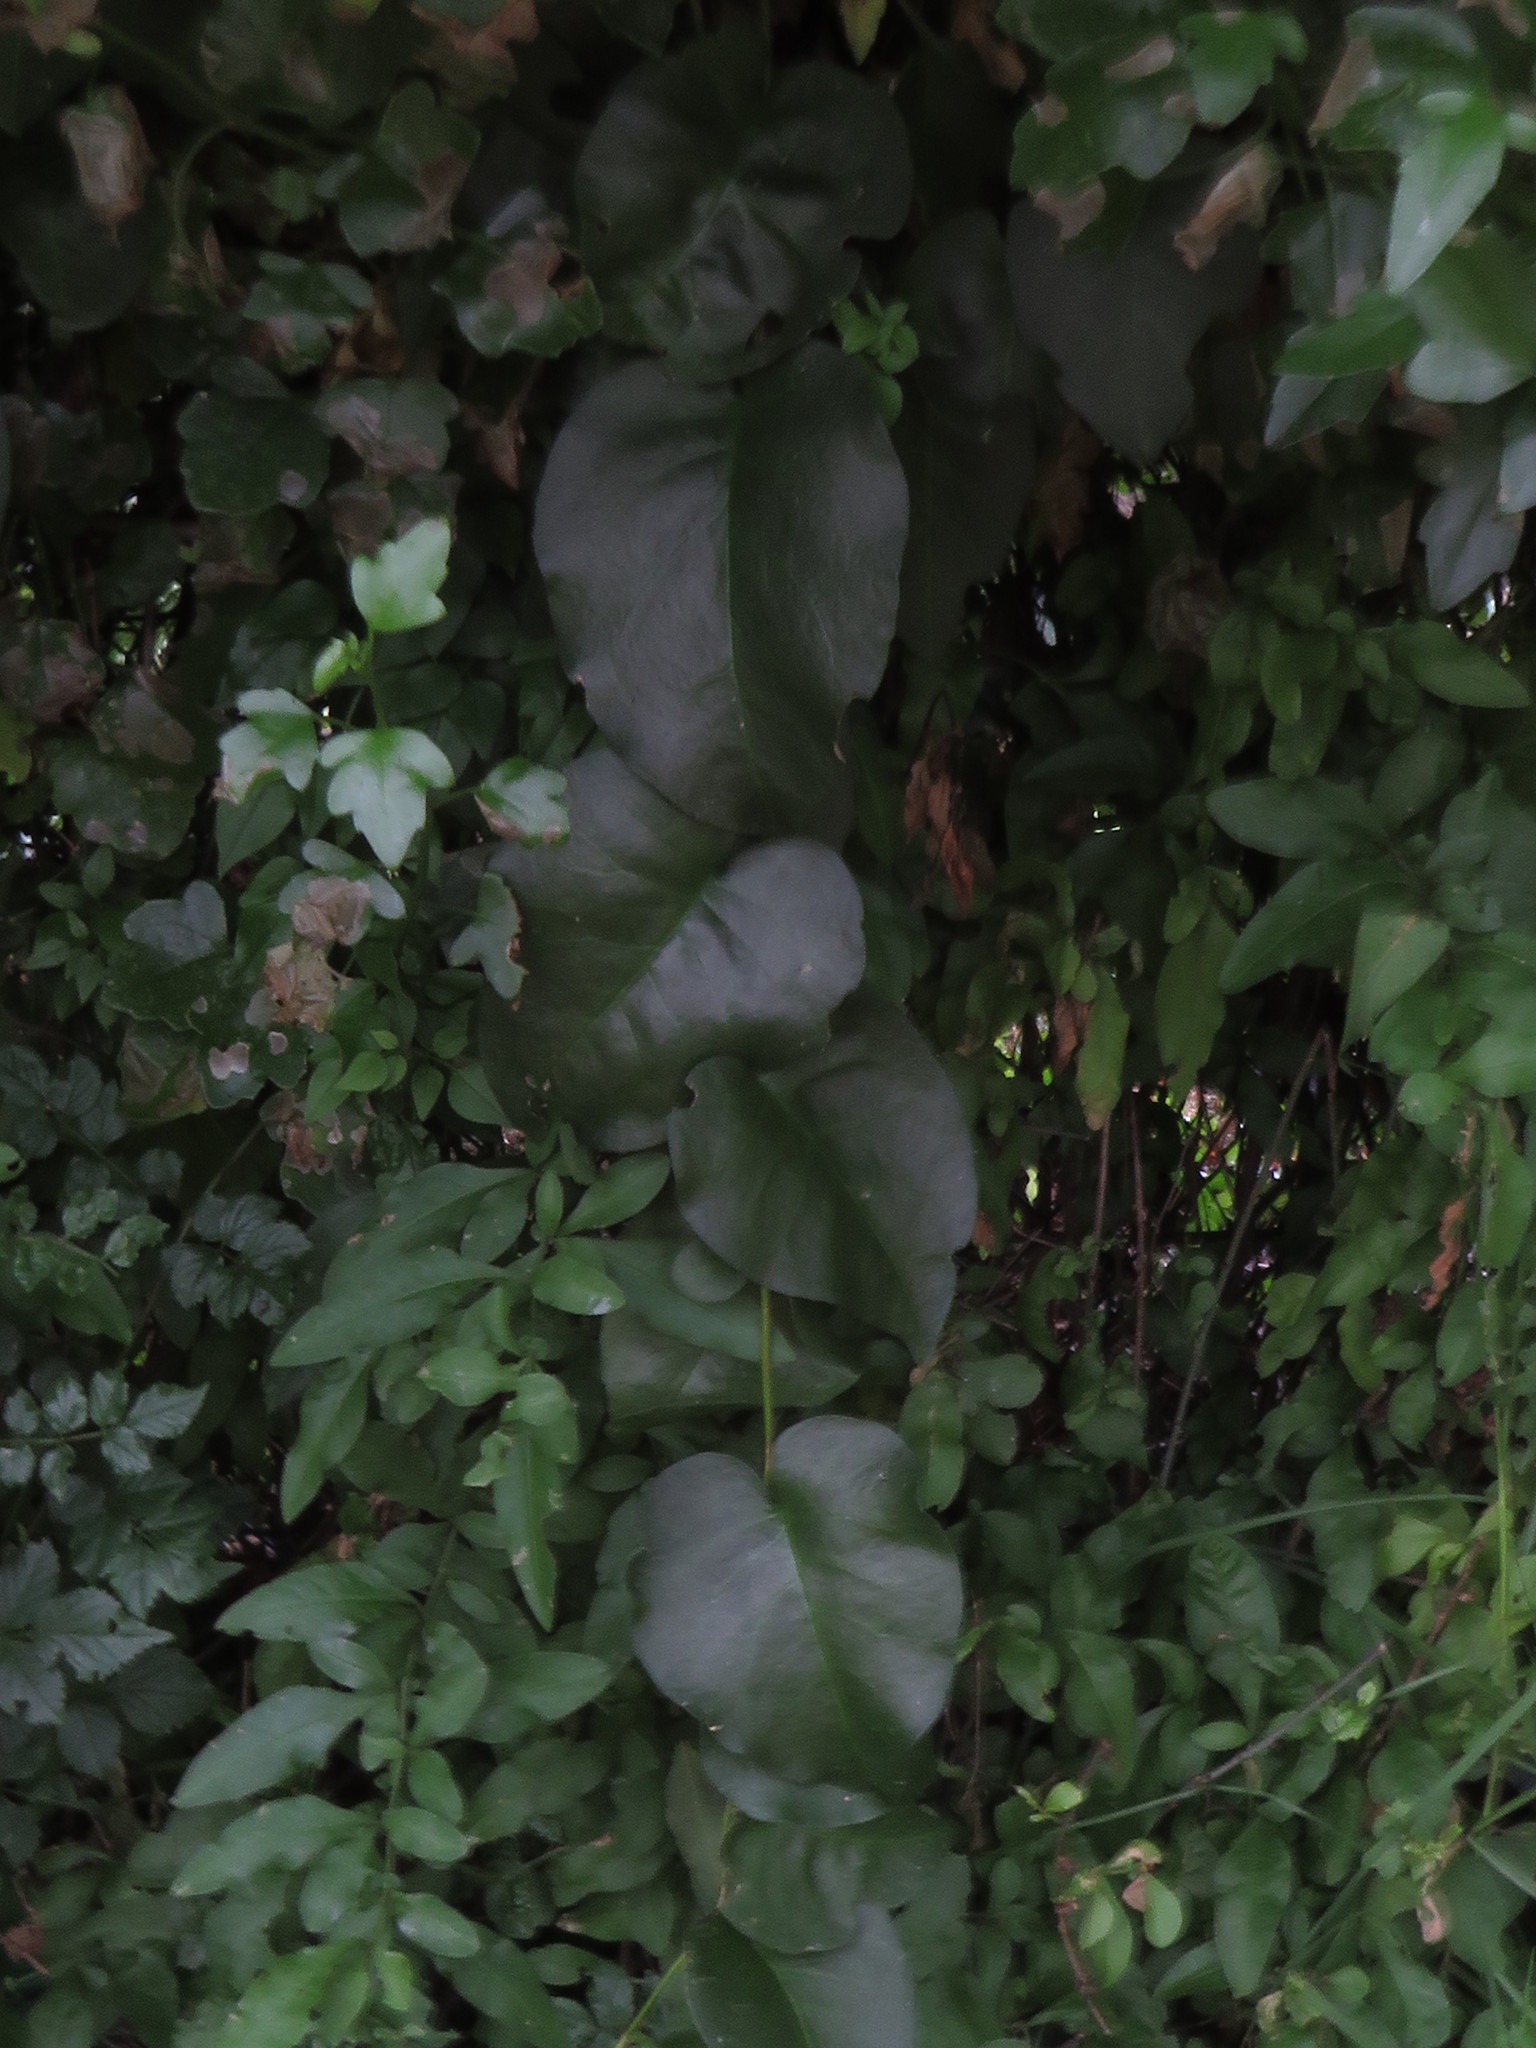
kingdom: Plantae
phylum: Tracheophyta
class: Magnoliopsida
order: Caryophyllales
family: Basellaceae
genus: Anredera
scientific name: Anredera cordifolia
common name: Heartleaf madeiravine
